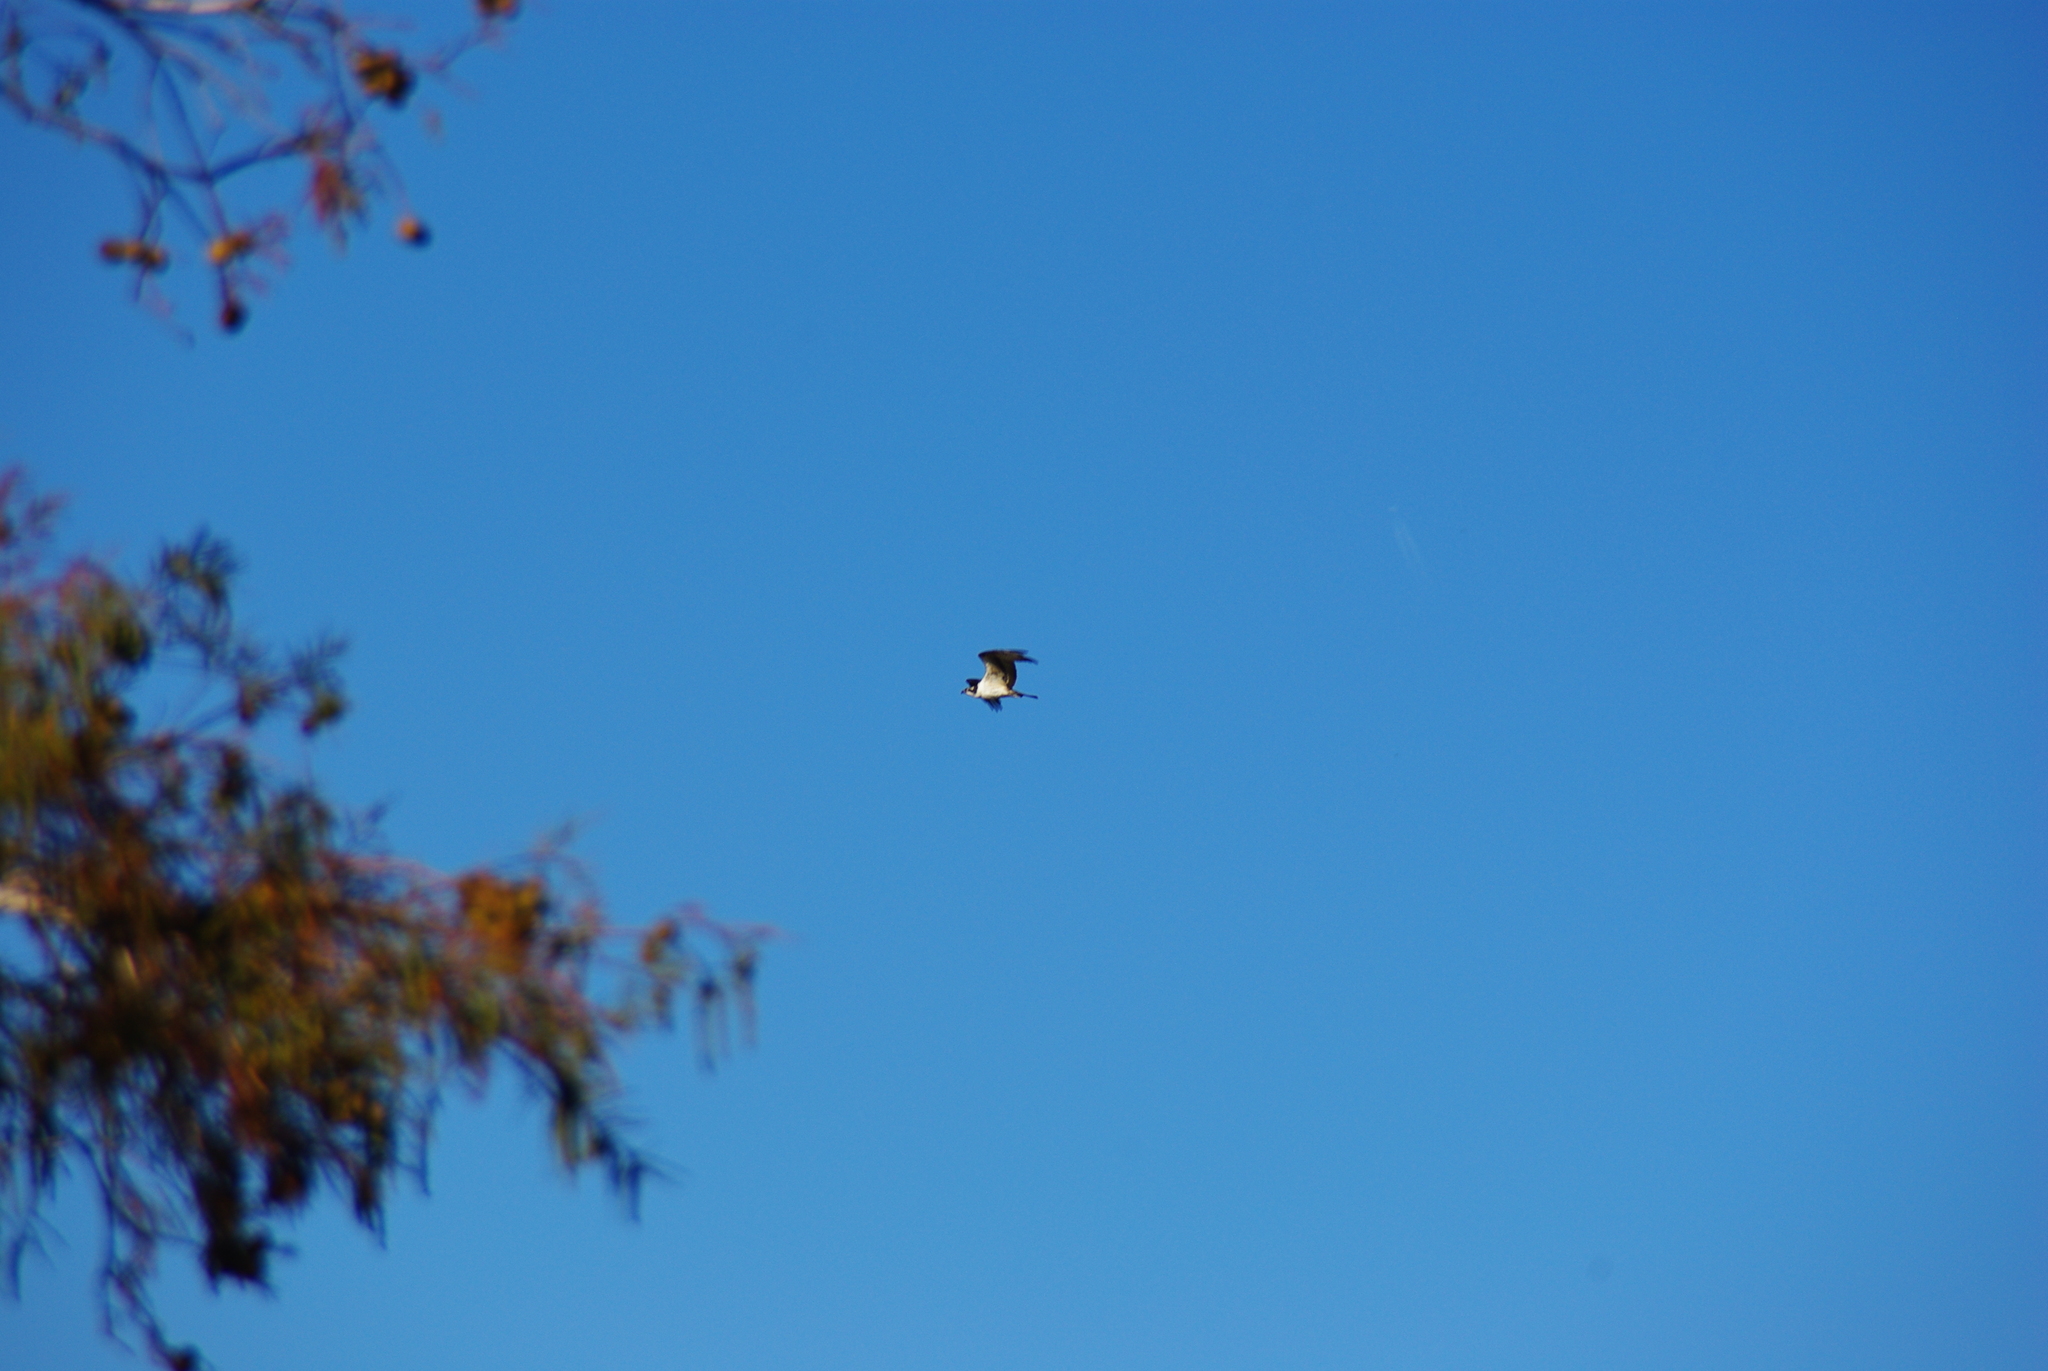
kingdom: Animalia
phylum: Chordata
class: Aves
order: Accipitriformes
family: Pandionidae
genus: Pandion
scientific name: Pandion haliaetus
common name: Osprey
